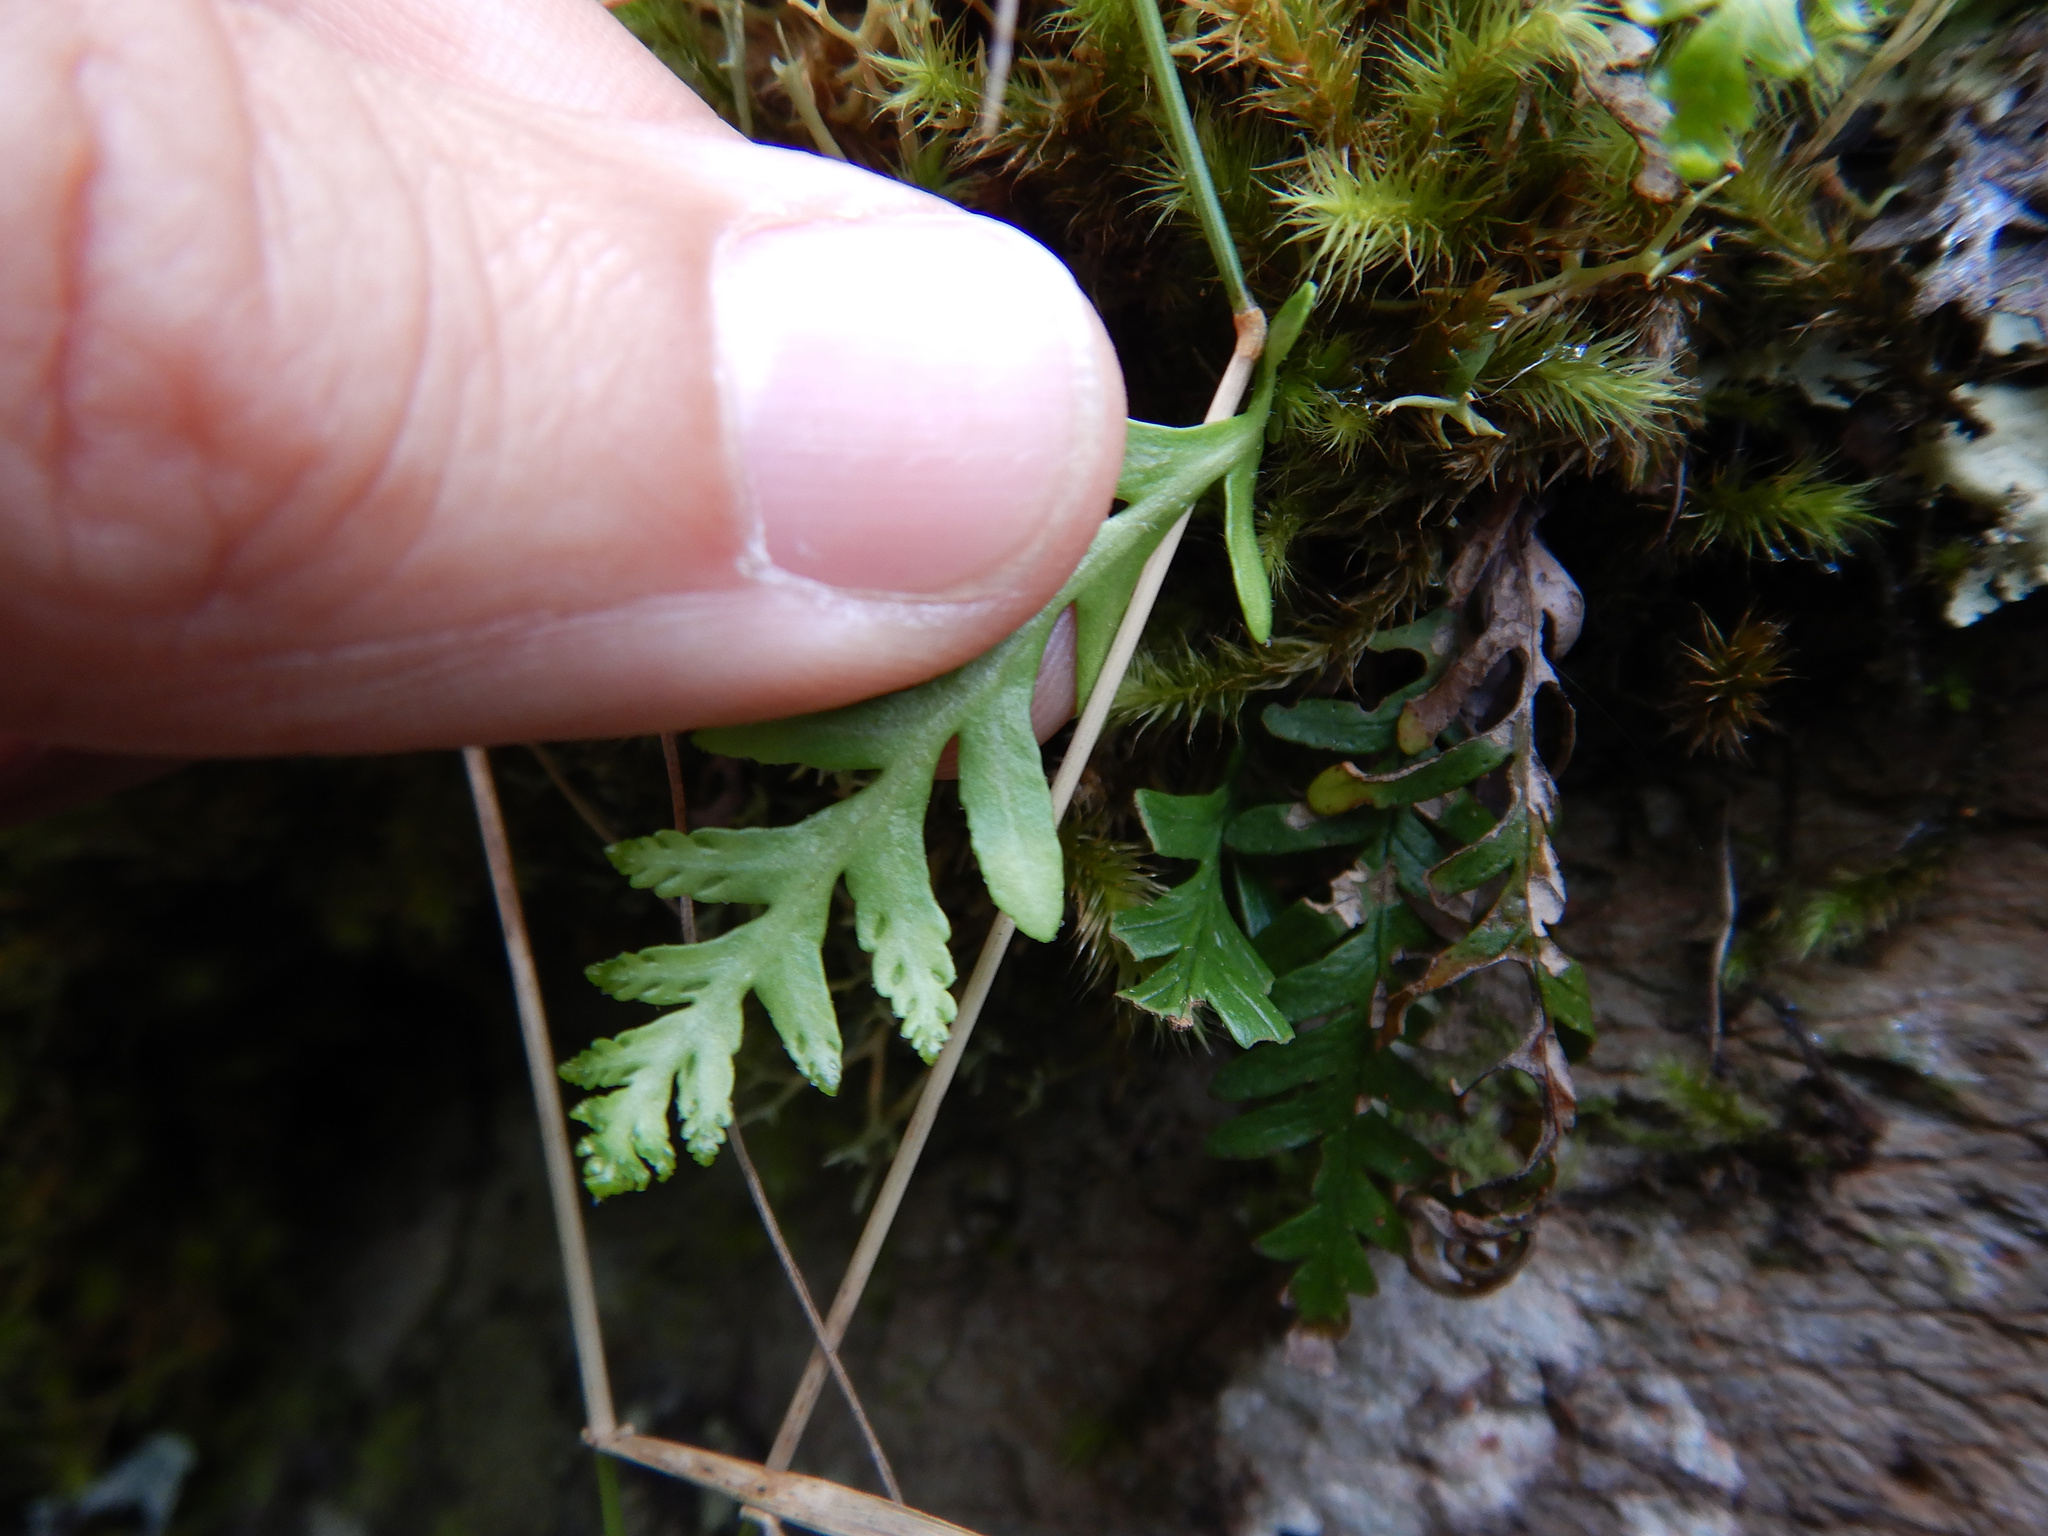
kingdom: Plantae
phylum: Tracheophyta
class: Polypodiopsida
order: Polypodiales
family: Polypodiaceae
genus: Notogrammitis
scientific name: Notogrammitis heterophylla
